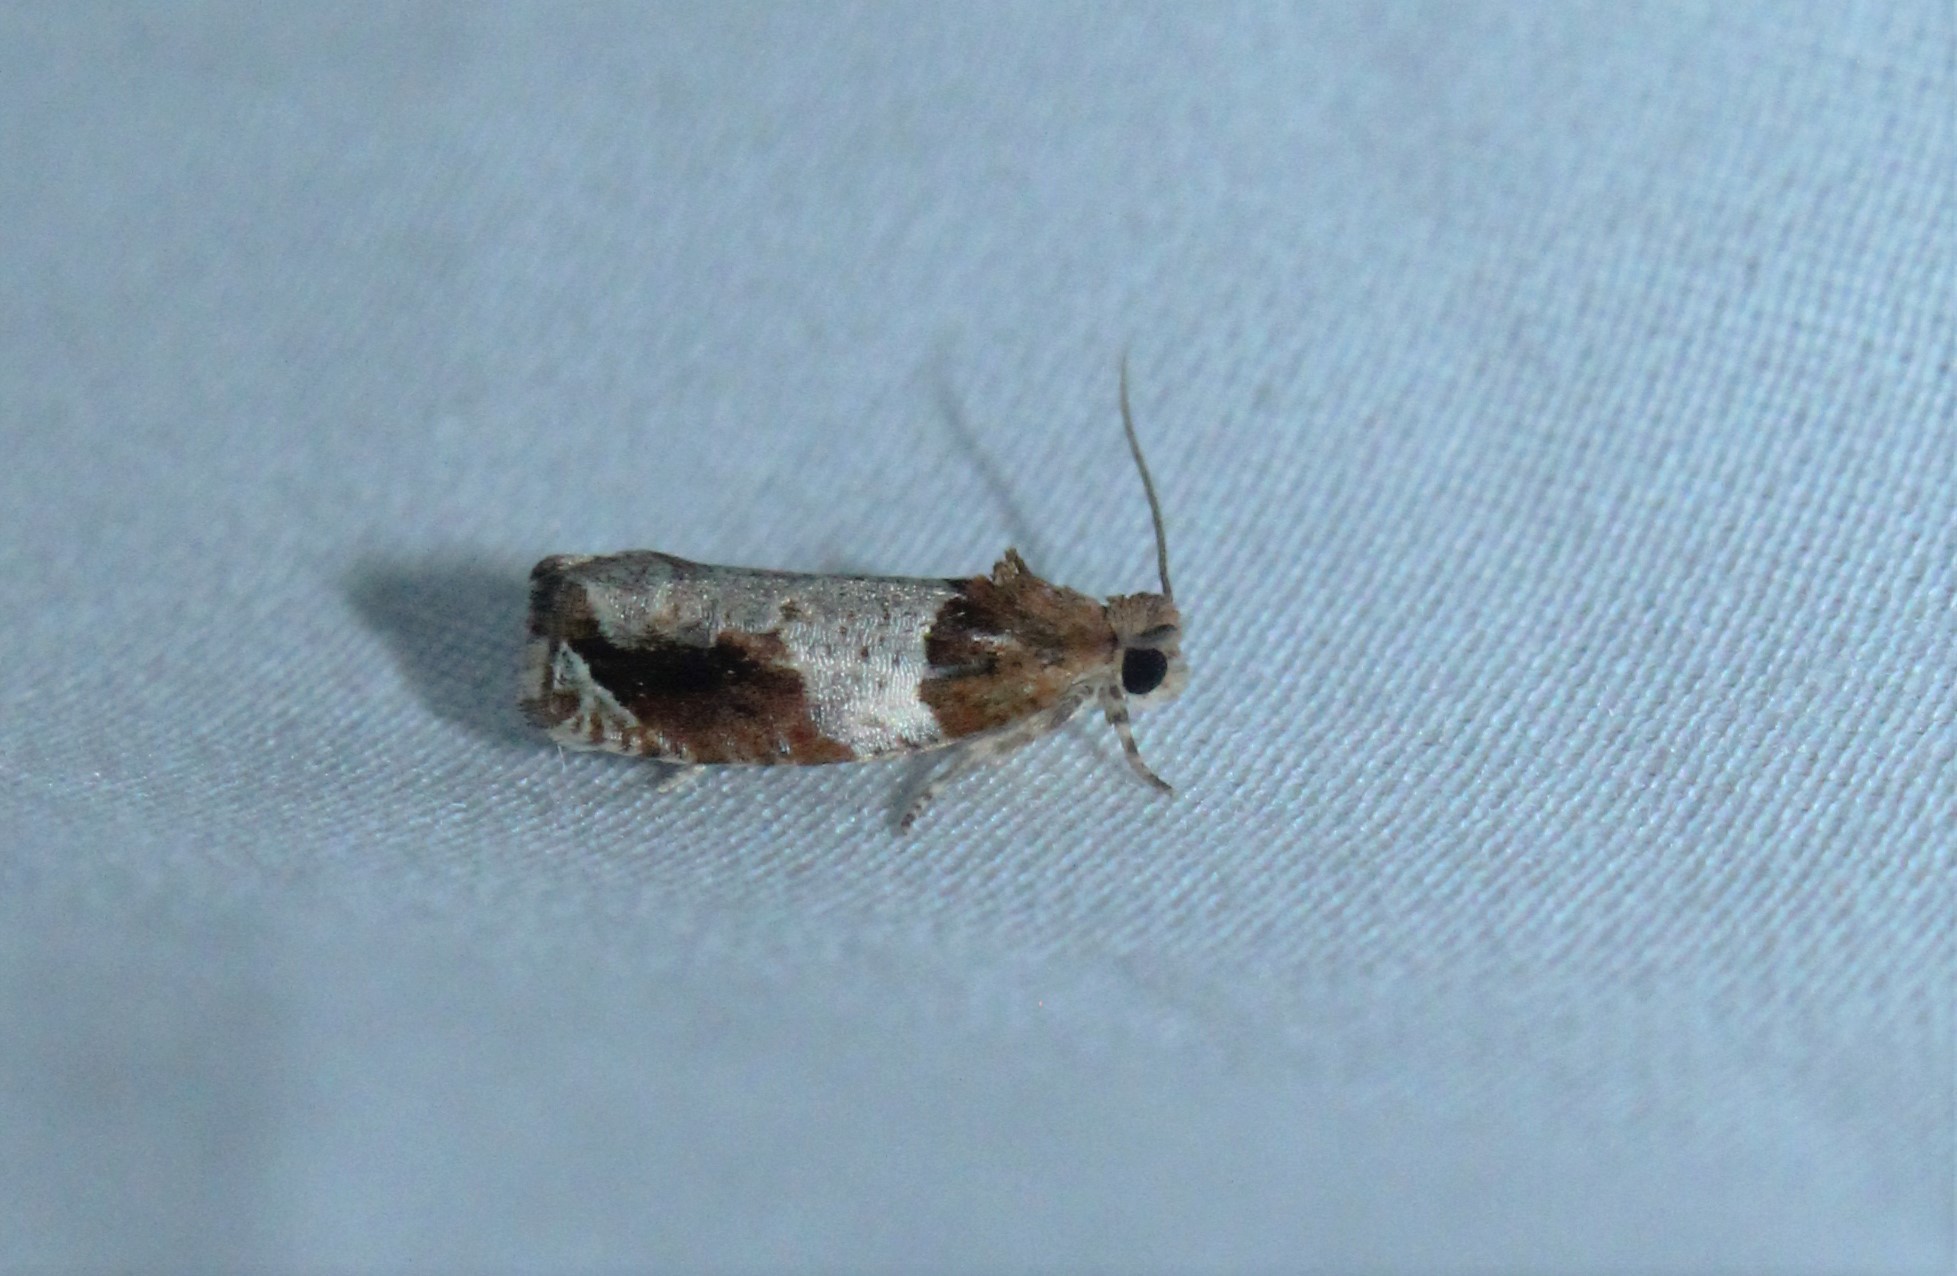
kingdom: Animalia
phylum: Arthropoda
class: Insecta
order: Lepidoptera
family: Tortricidae
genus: Olethreutes
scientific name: Olethreutes ferriferana
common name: Hydrangea leaftier moth
